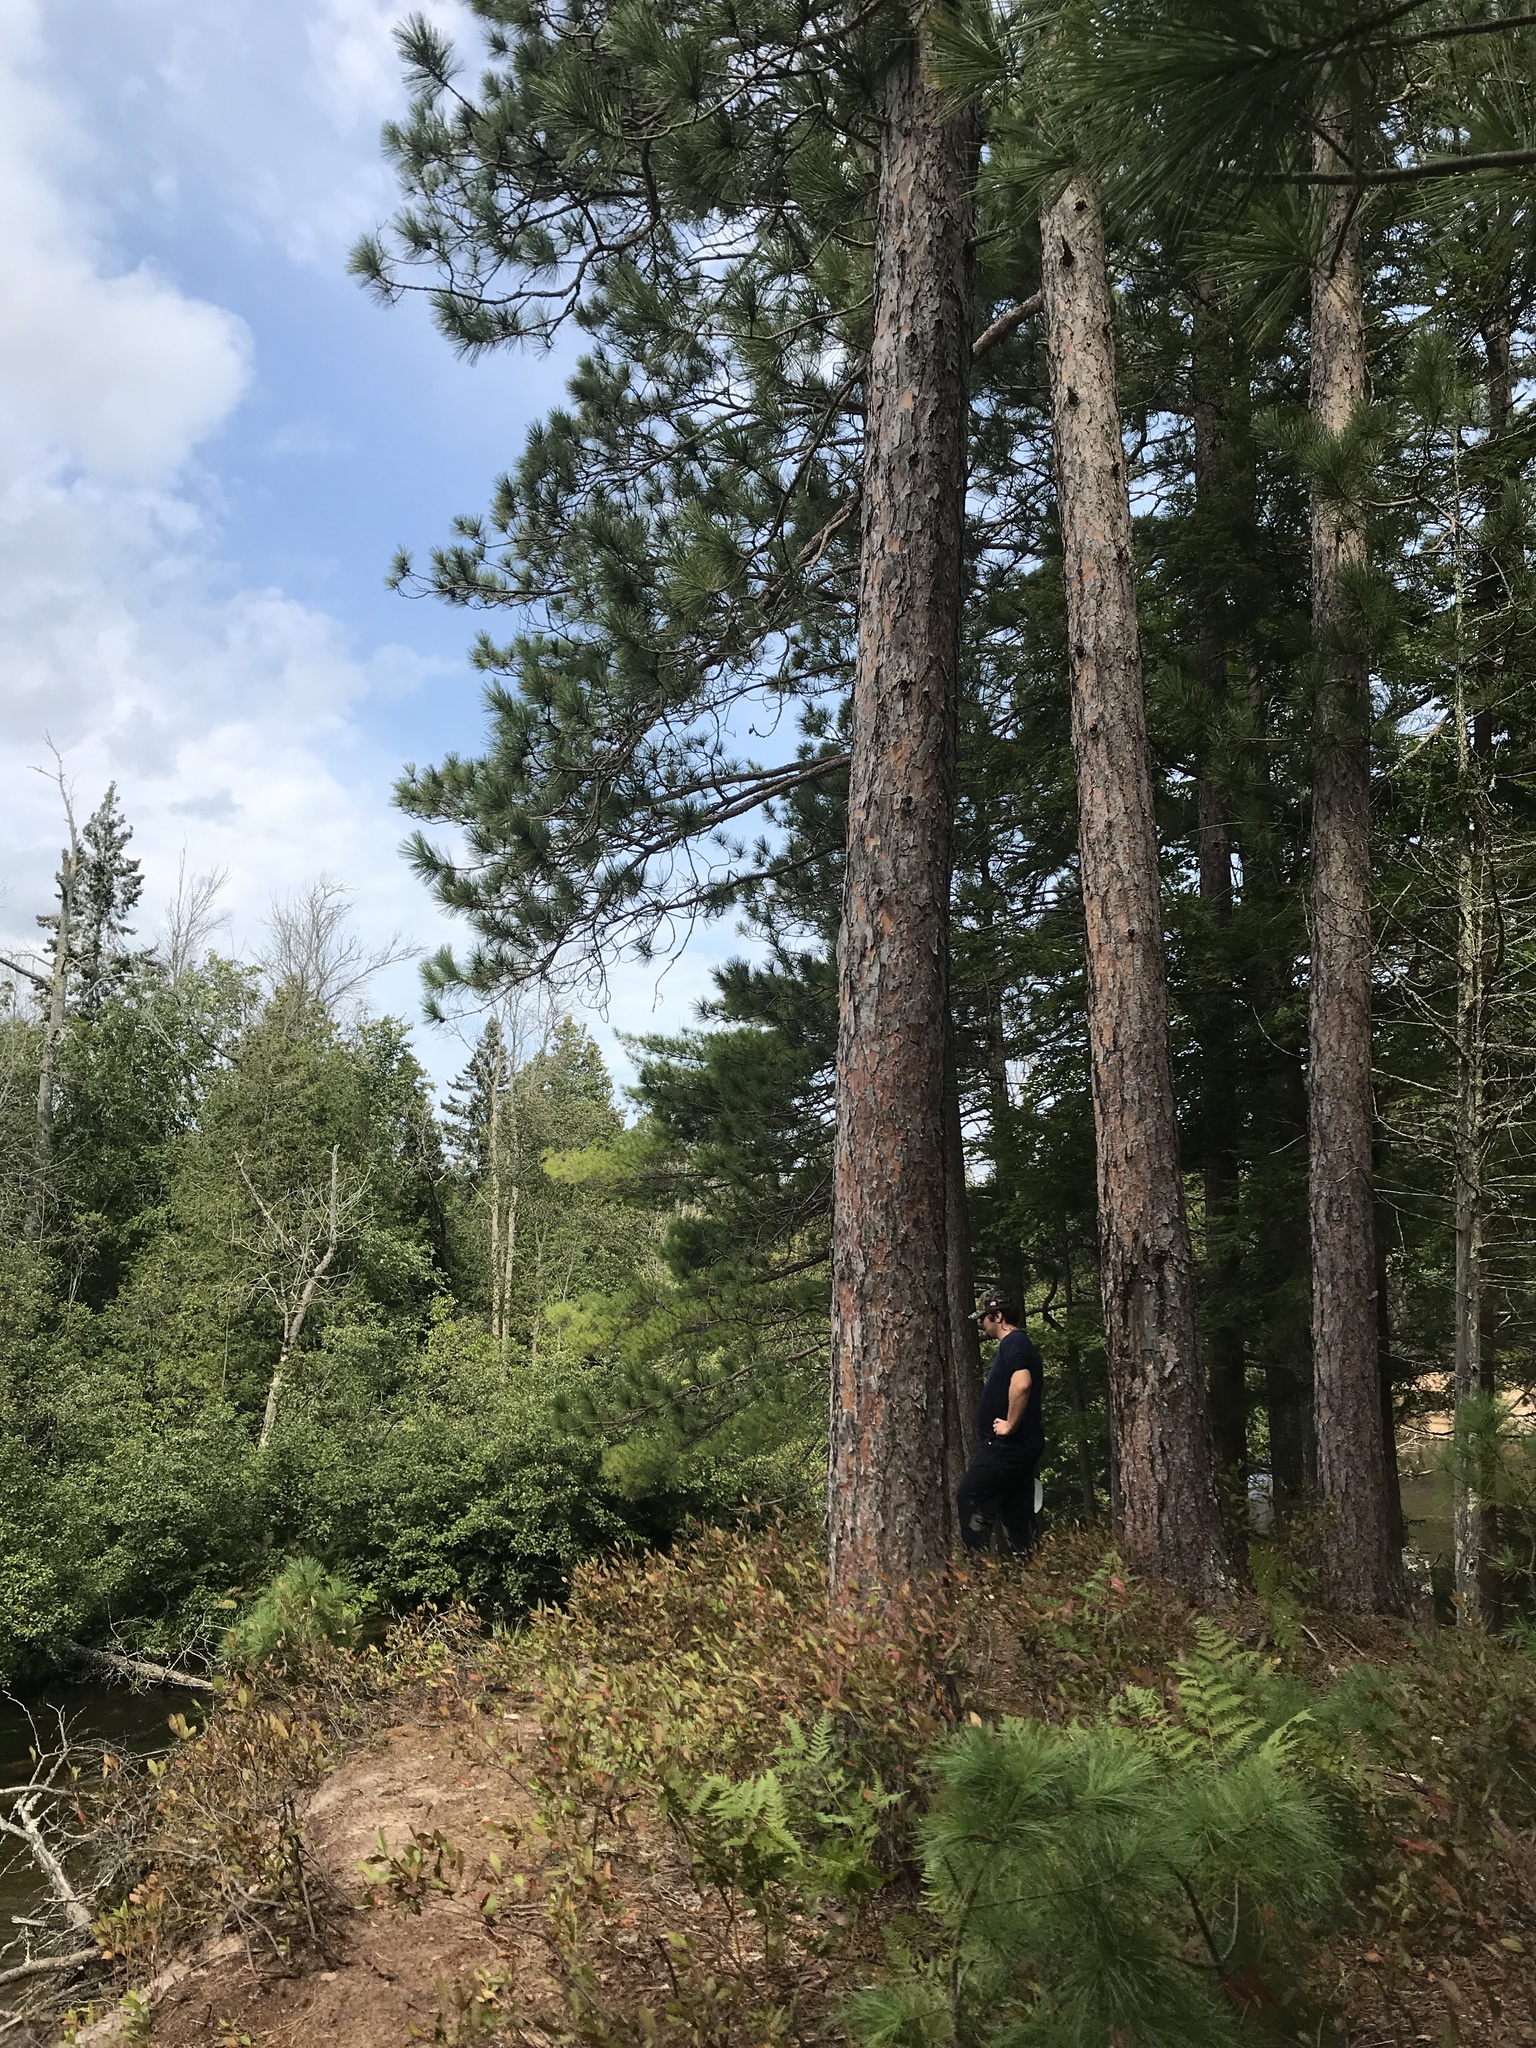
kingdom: Plantae
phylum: Tracheophyta
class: Pinopsida
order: Pinales
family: Pinaceae
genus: Pinus
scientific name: Pinus resinosa
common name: Norway pine
